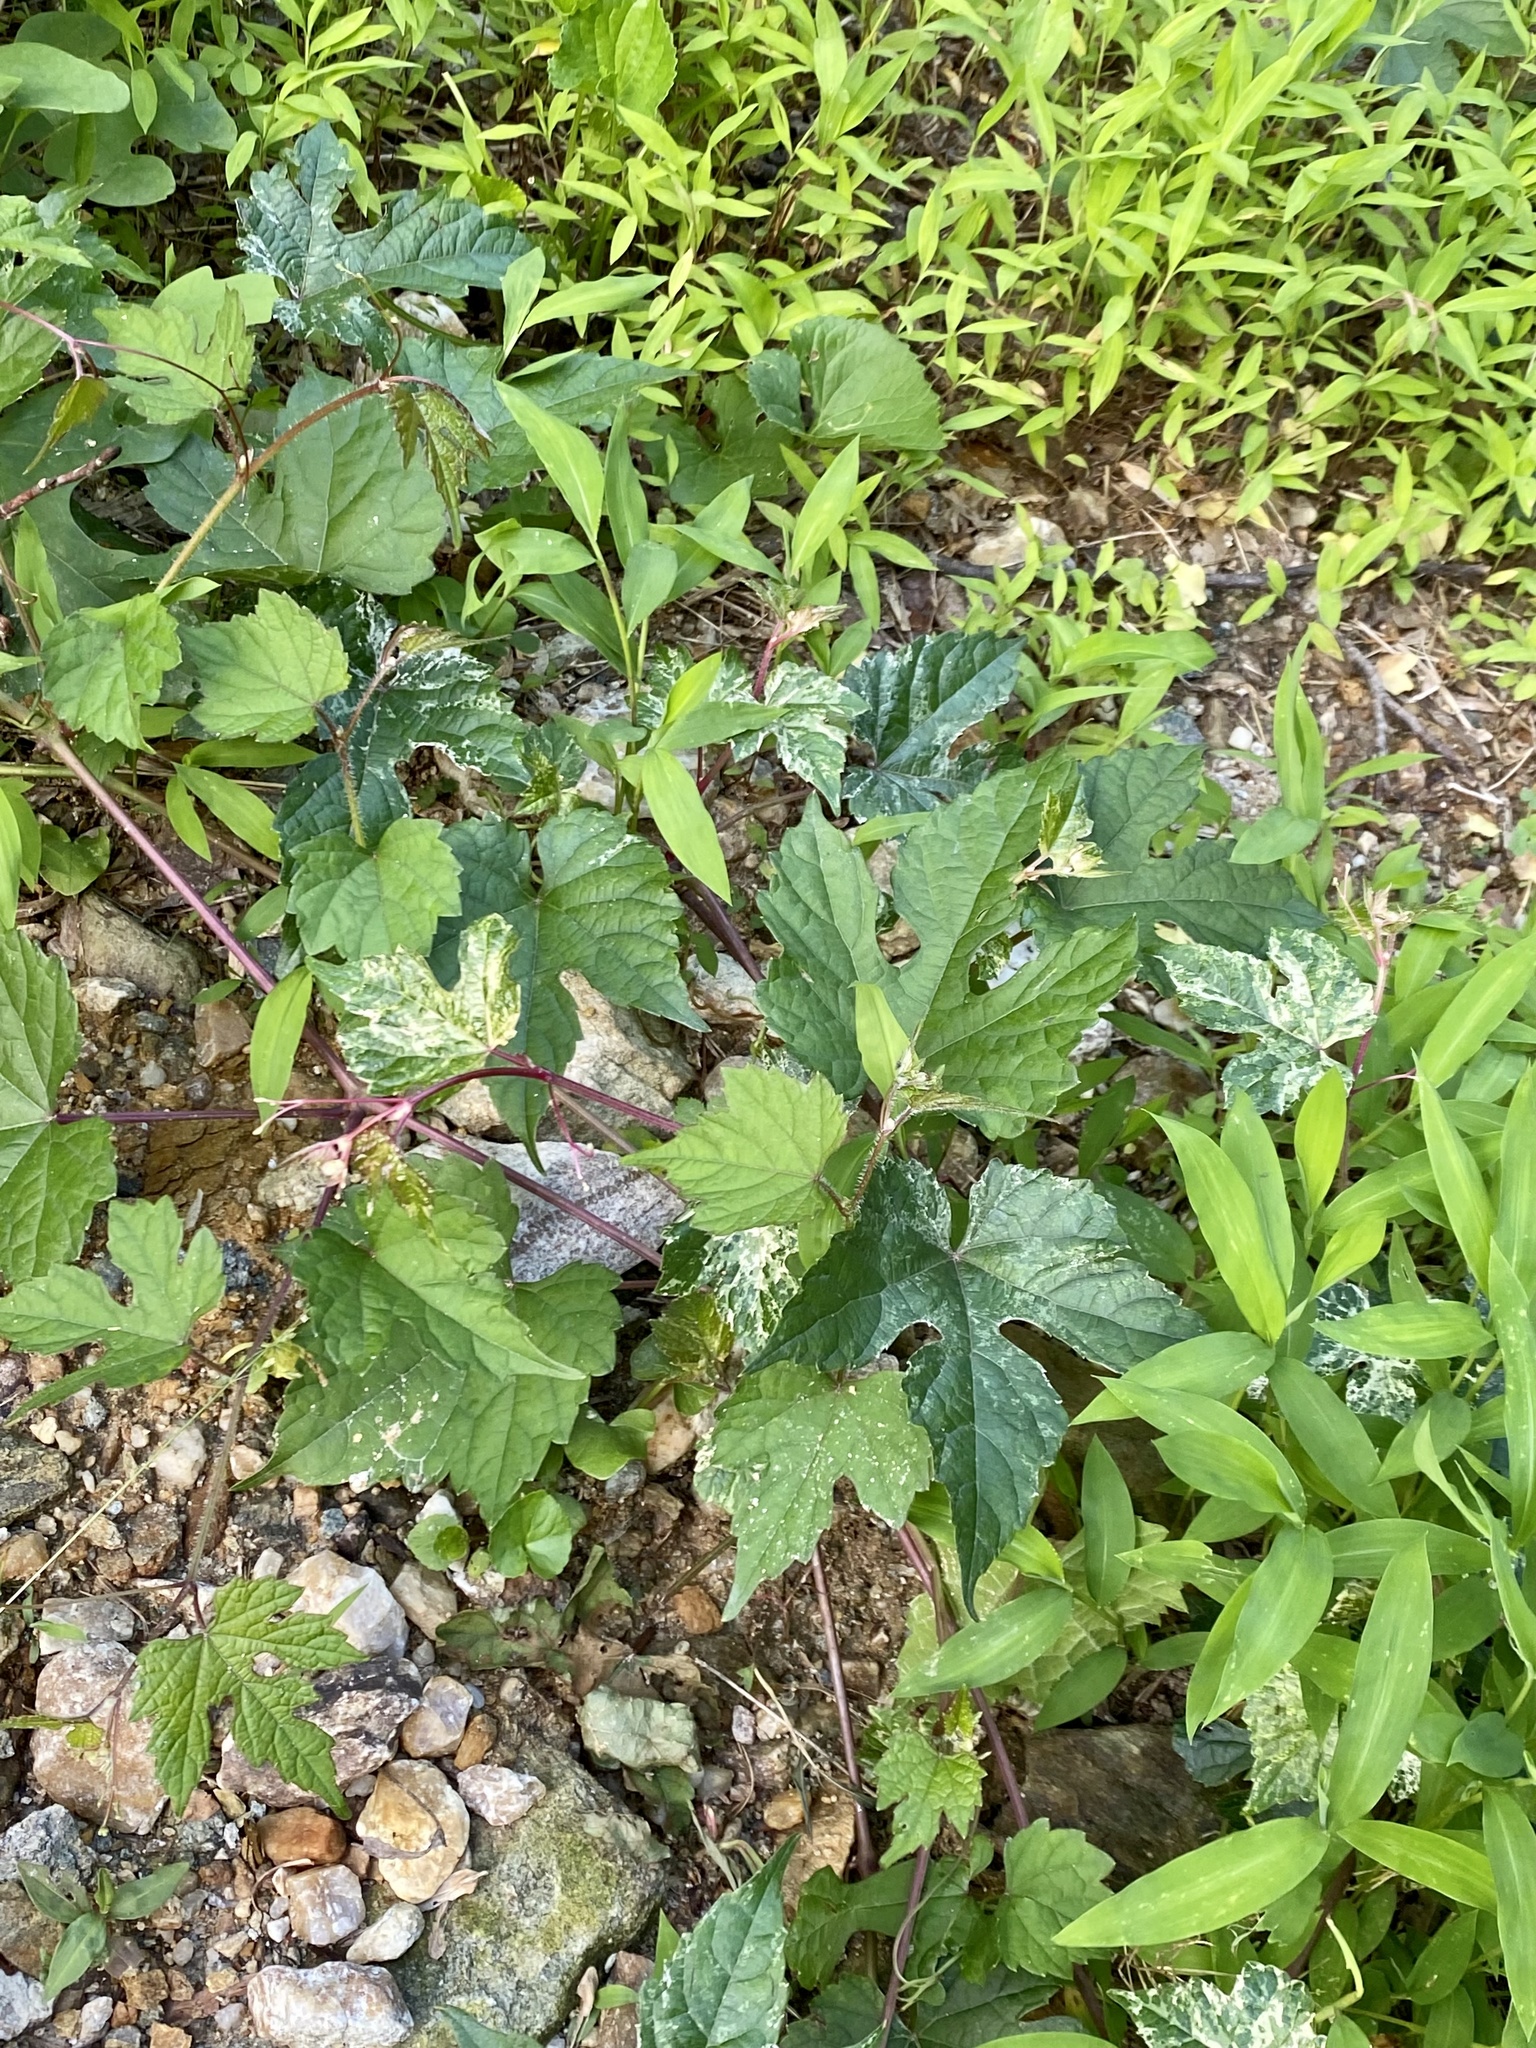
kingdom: Plantae
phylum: Tracheophyta
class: Magnoliopsida
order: Vitales
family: Vitaceae
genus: Ampelopsis
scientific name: Ampelopsis glandulosa
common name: Amur peppervine
